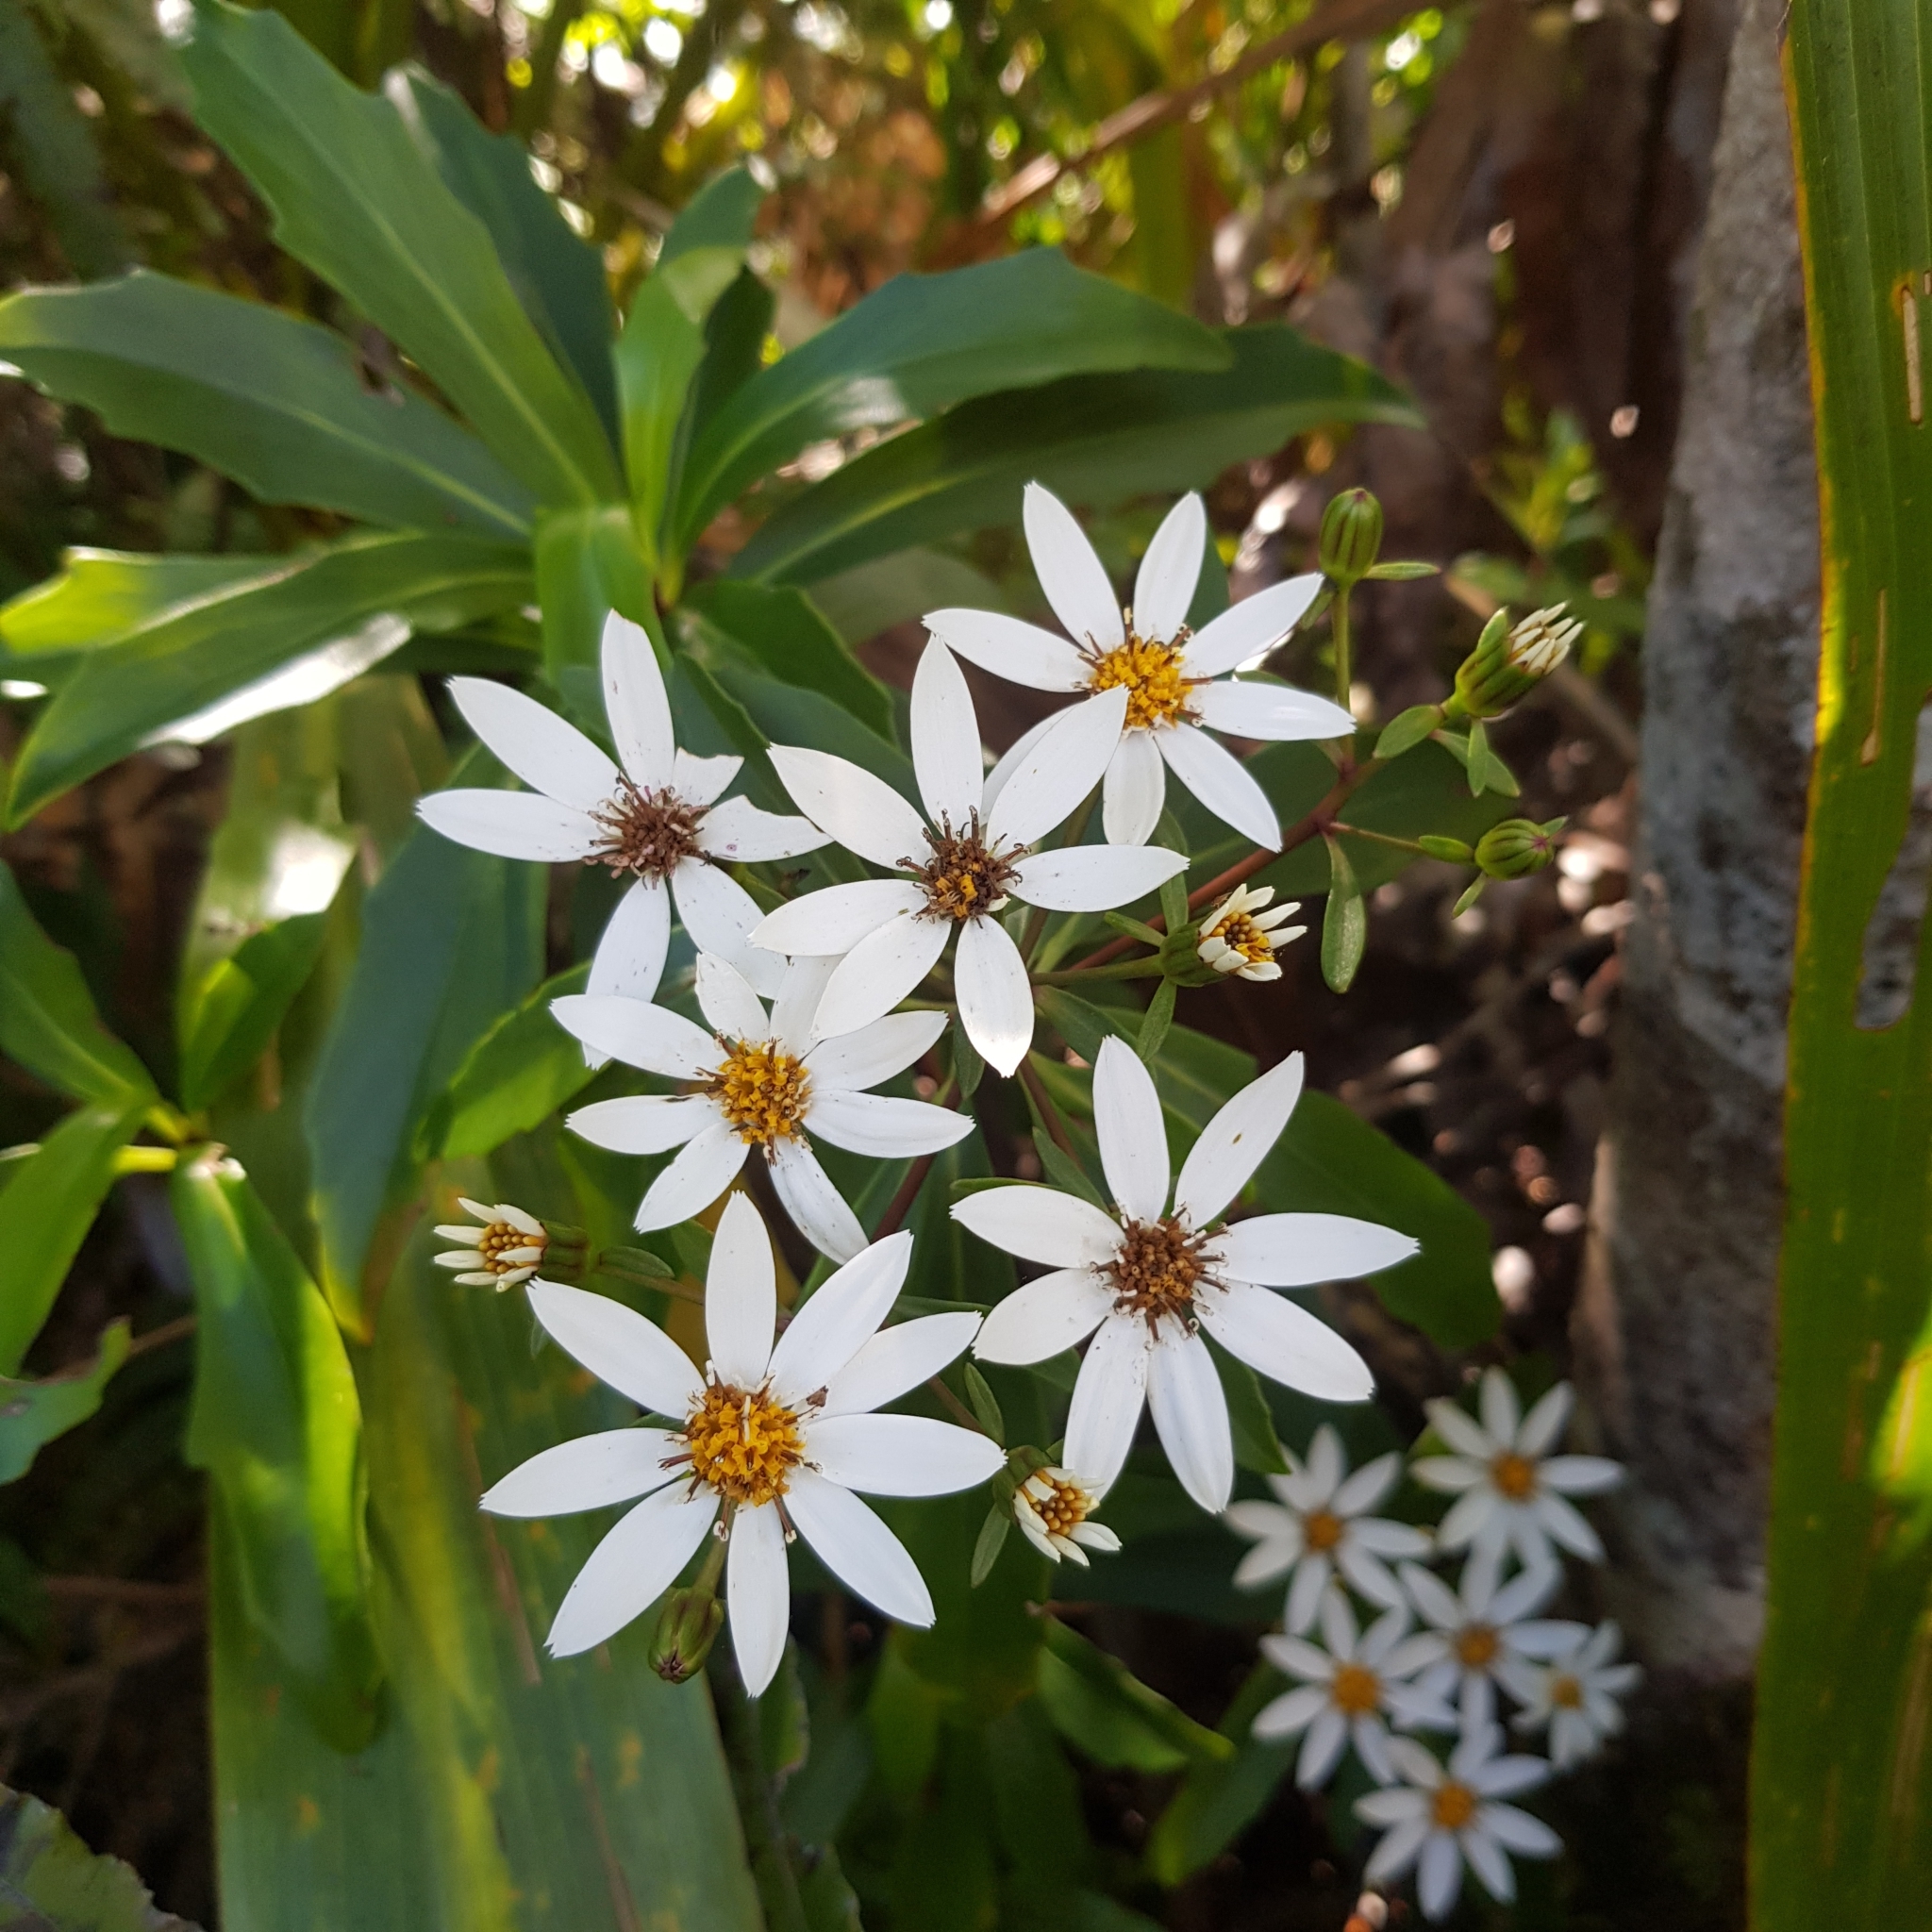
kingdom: Plantae
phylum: Tracheophyta
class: Magnoliopsida
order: Asterales
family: Asteraceae
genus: Brachyglottis
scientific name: Brachyglottis kirkii
